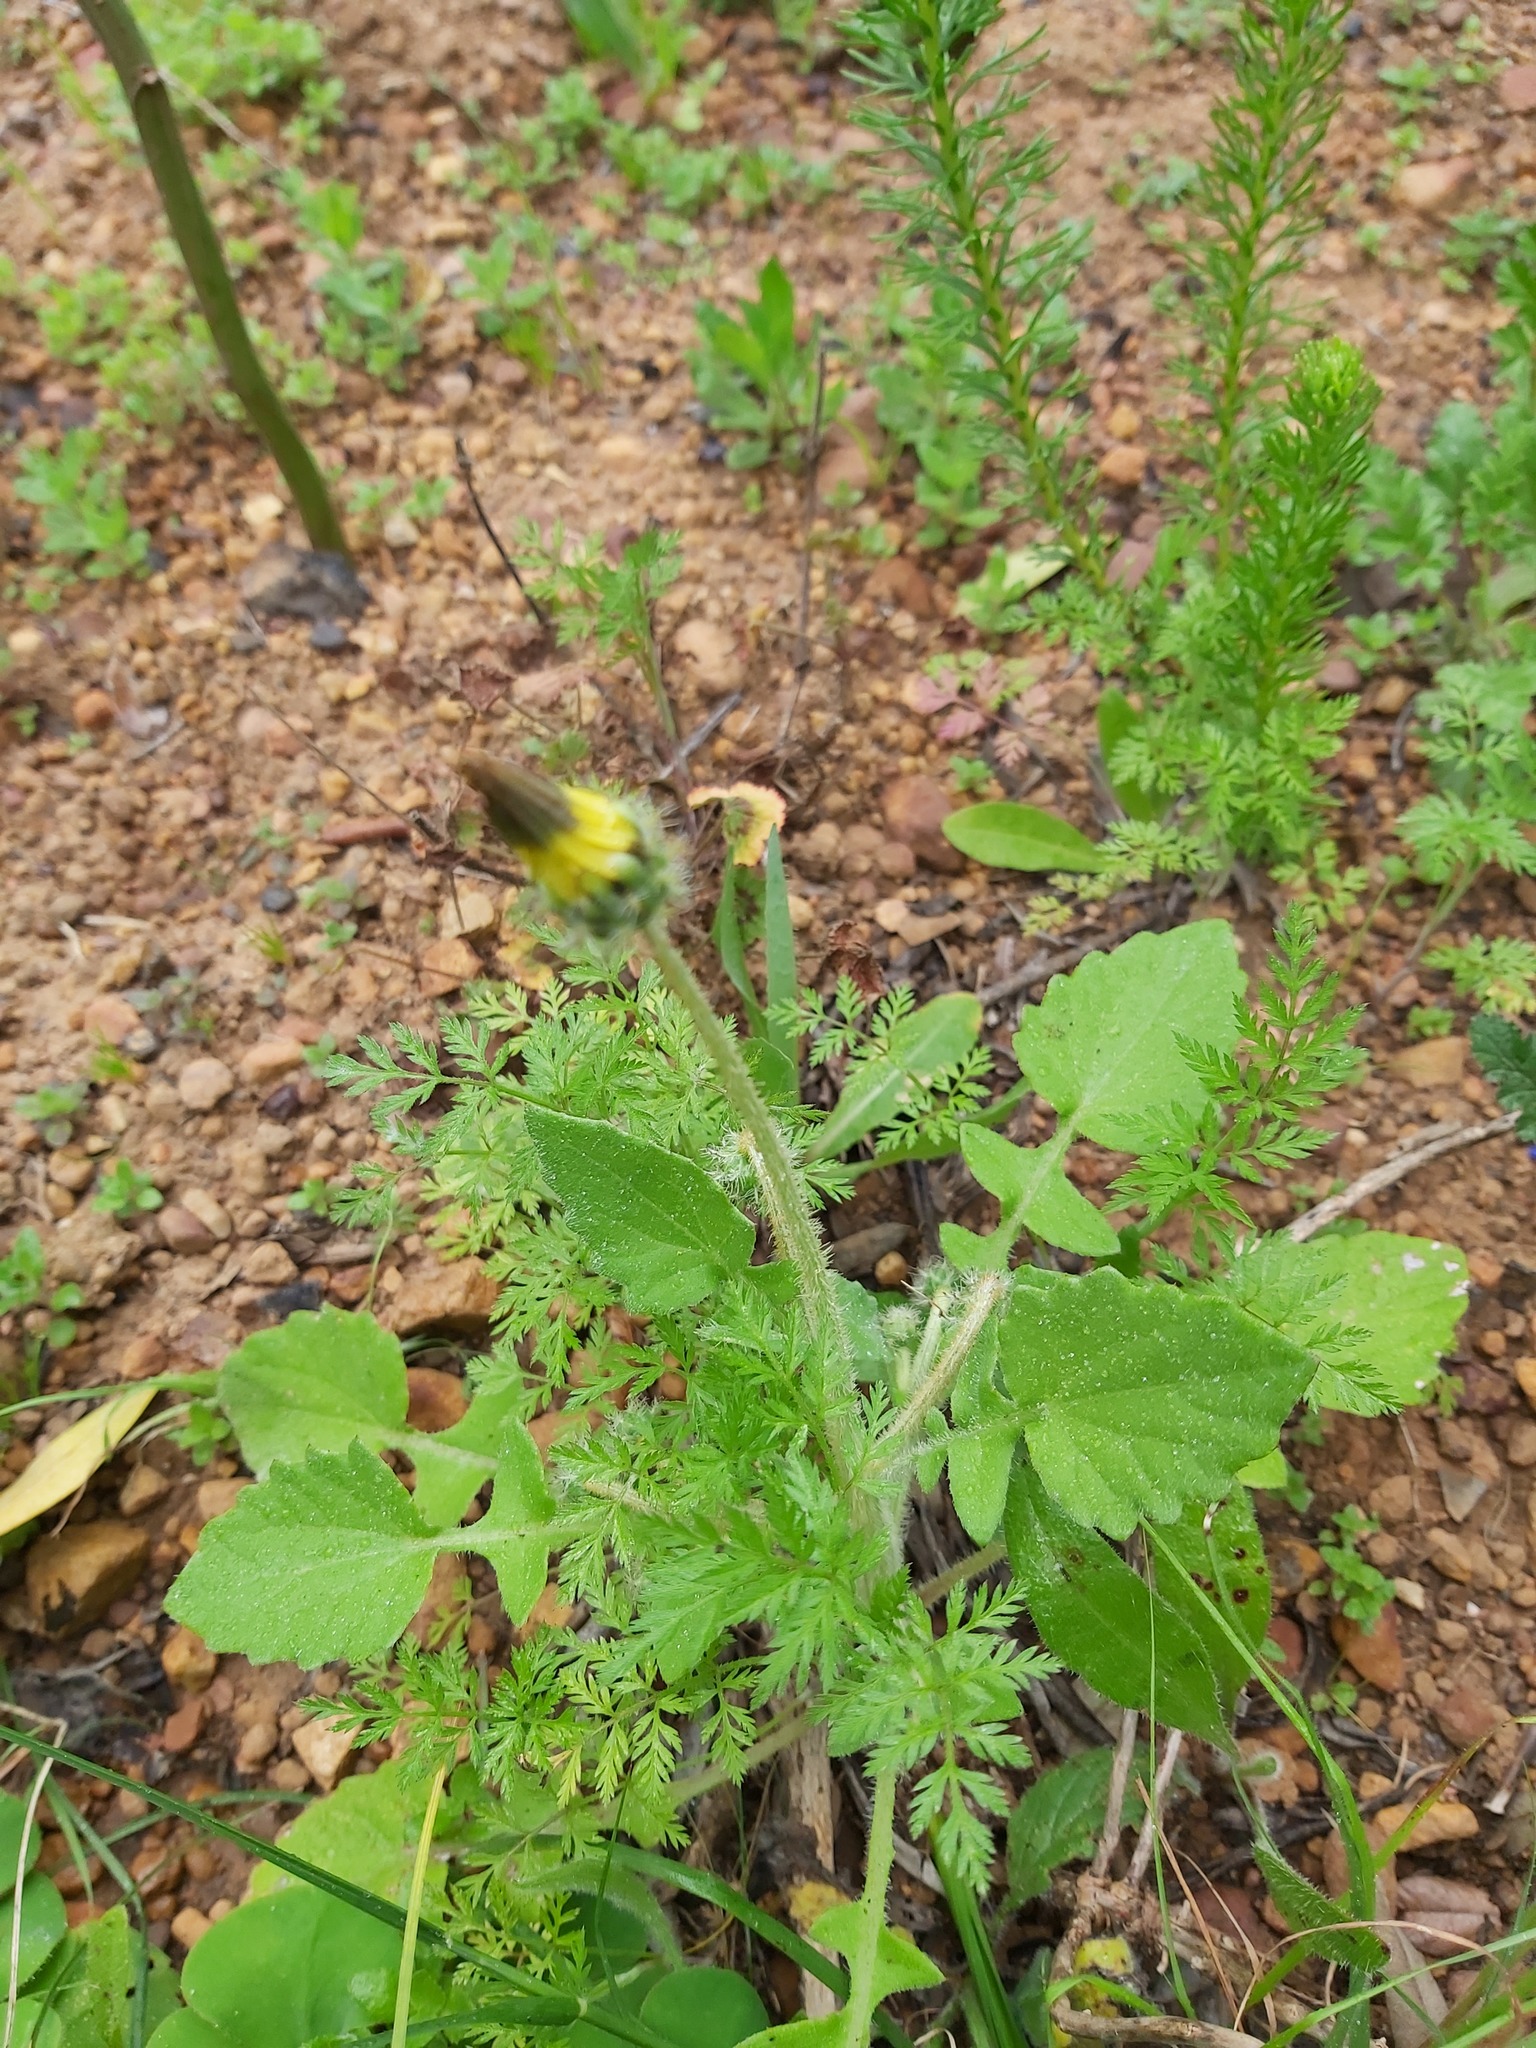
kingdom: Plantae
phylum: Tracheophyta
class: Magnoliopsida
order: Asterales
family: Asteraceae
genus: Arctotheca
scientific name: Arctotheca calendula
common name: Capeweed
